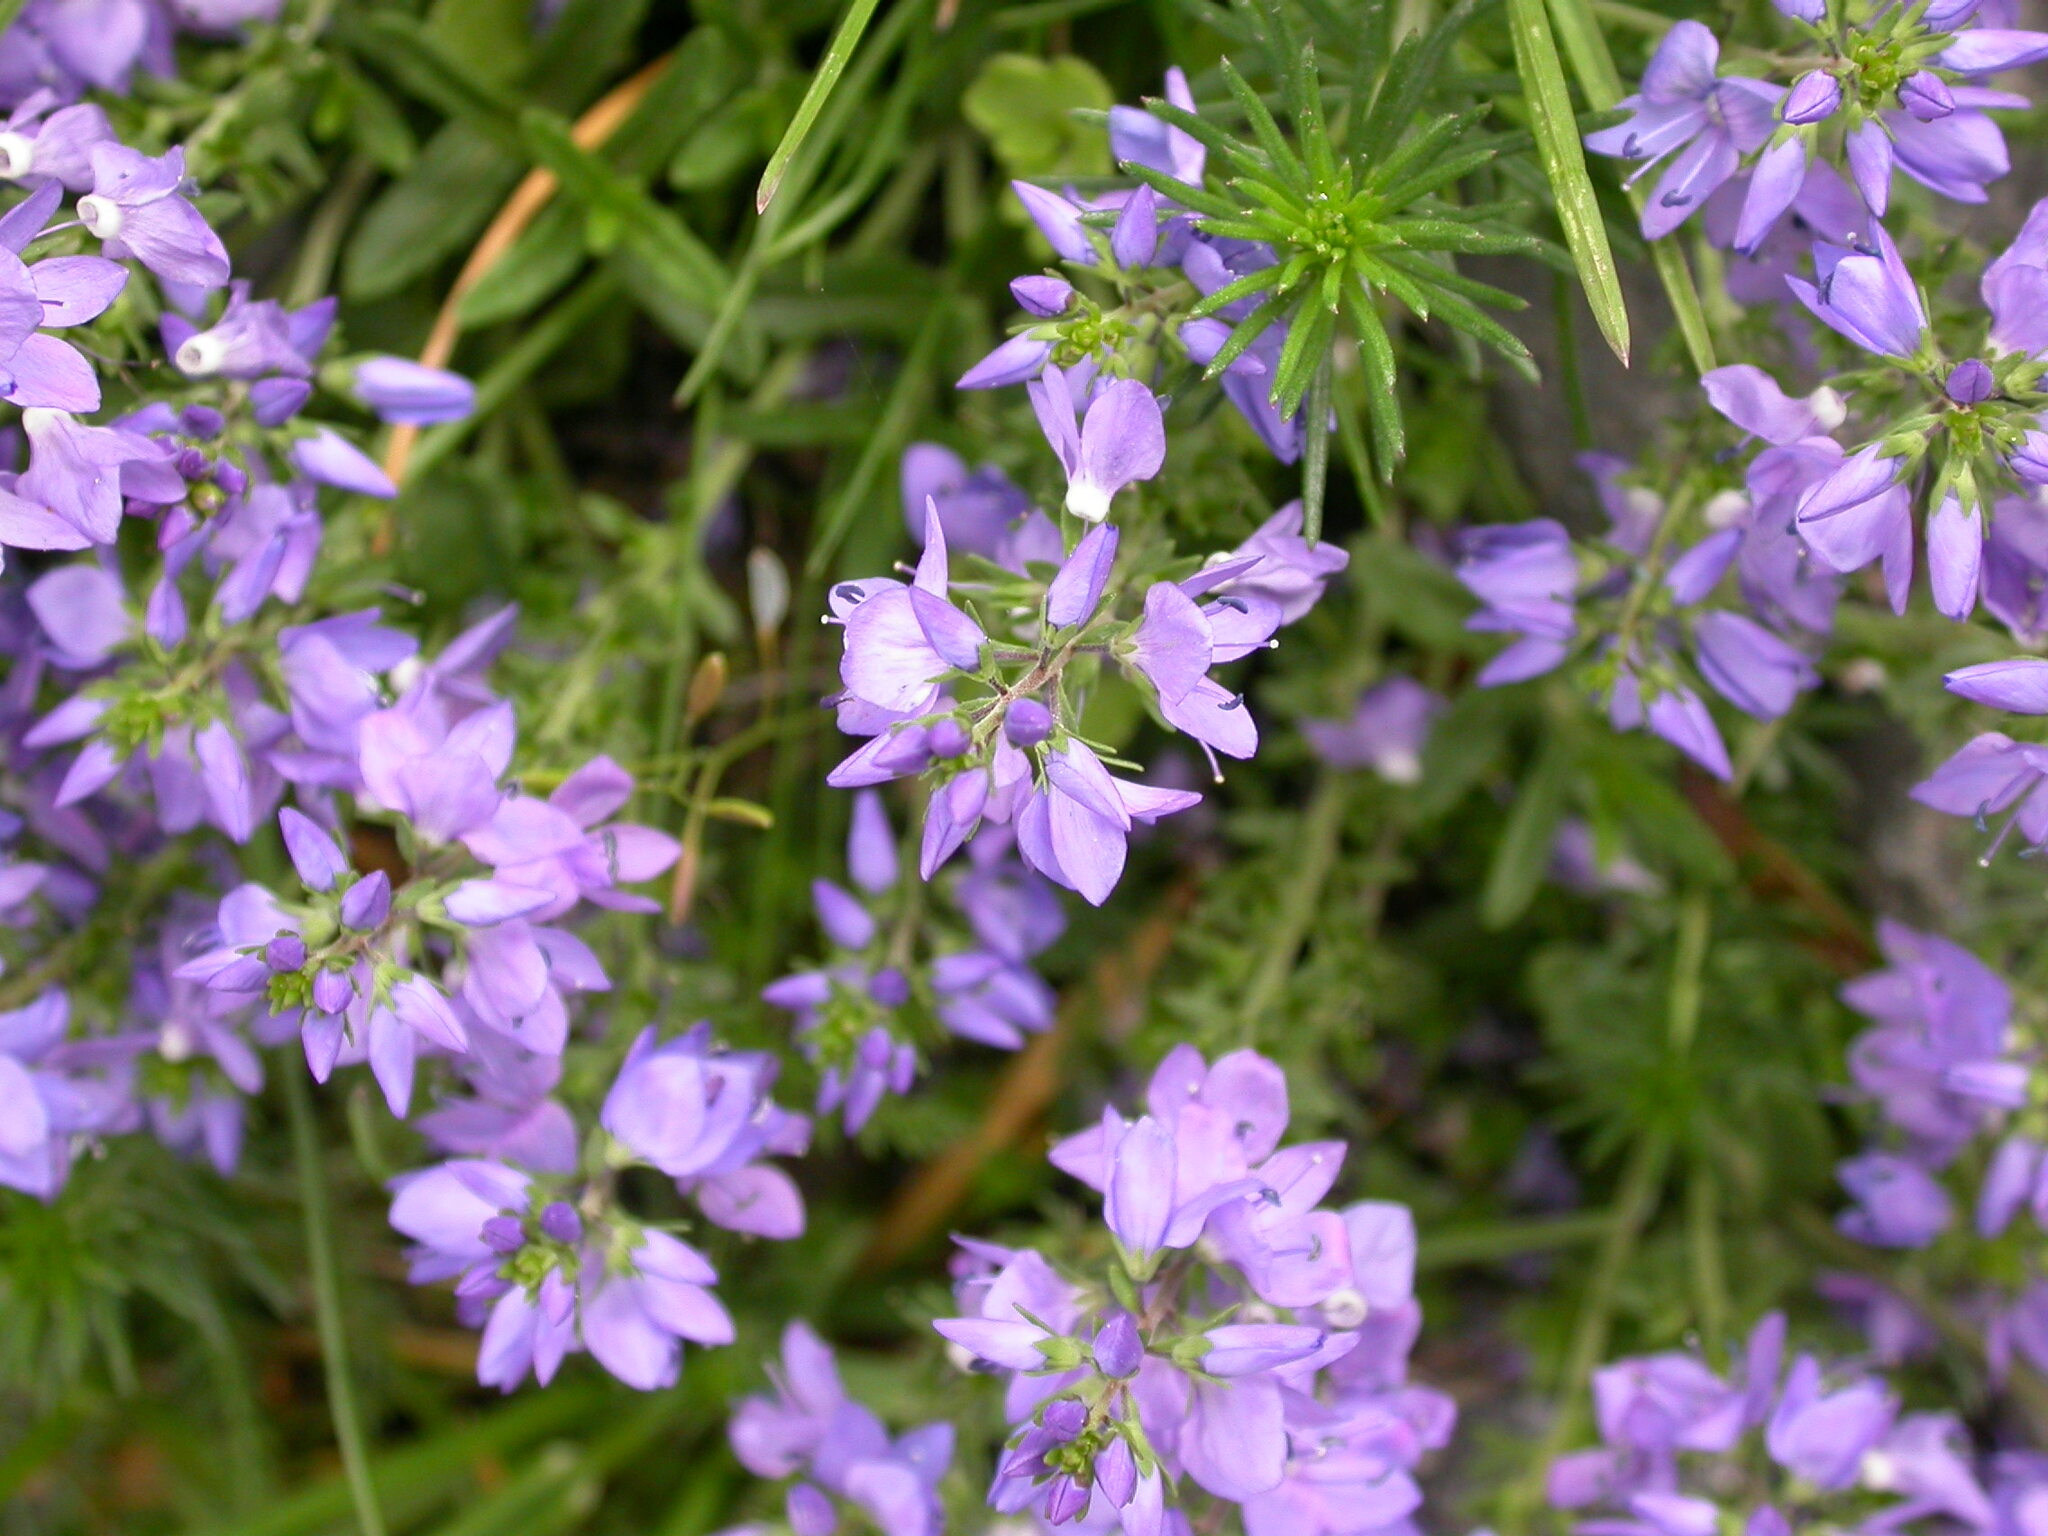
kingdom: Plantae
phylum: Tracheophyta
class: Magnoliopsida
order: Lamiales
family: Plantaginaceae
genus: Veronica
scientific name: Veronica orsiniana
